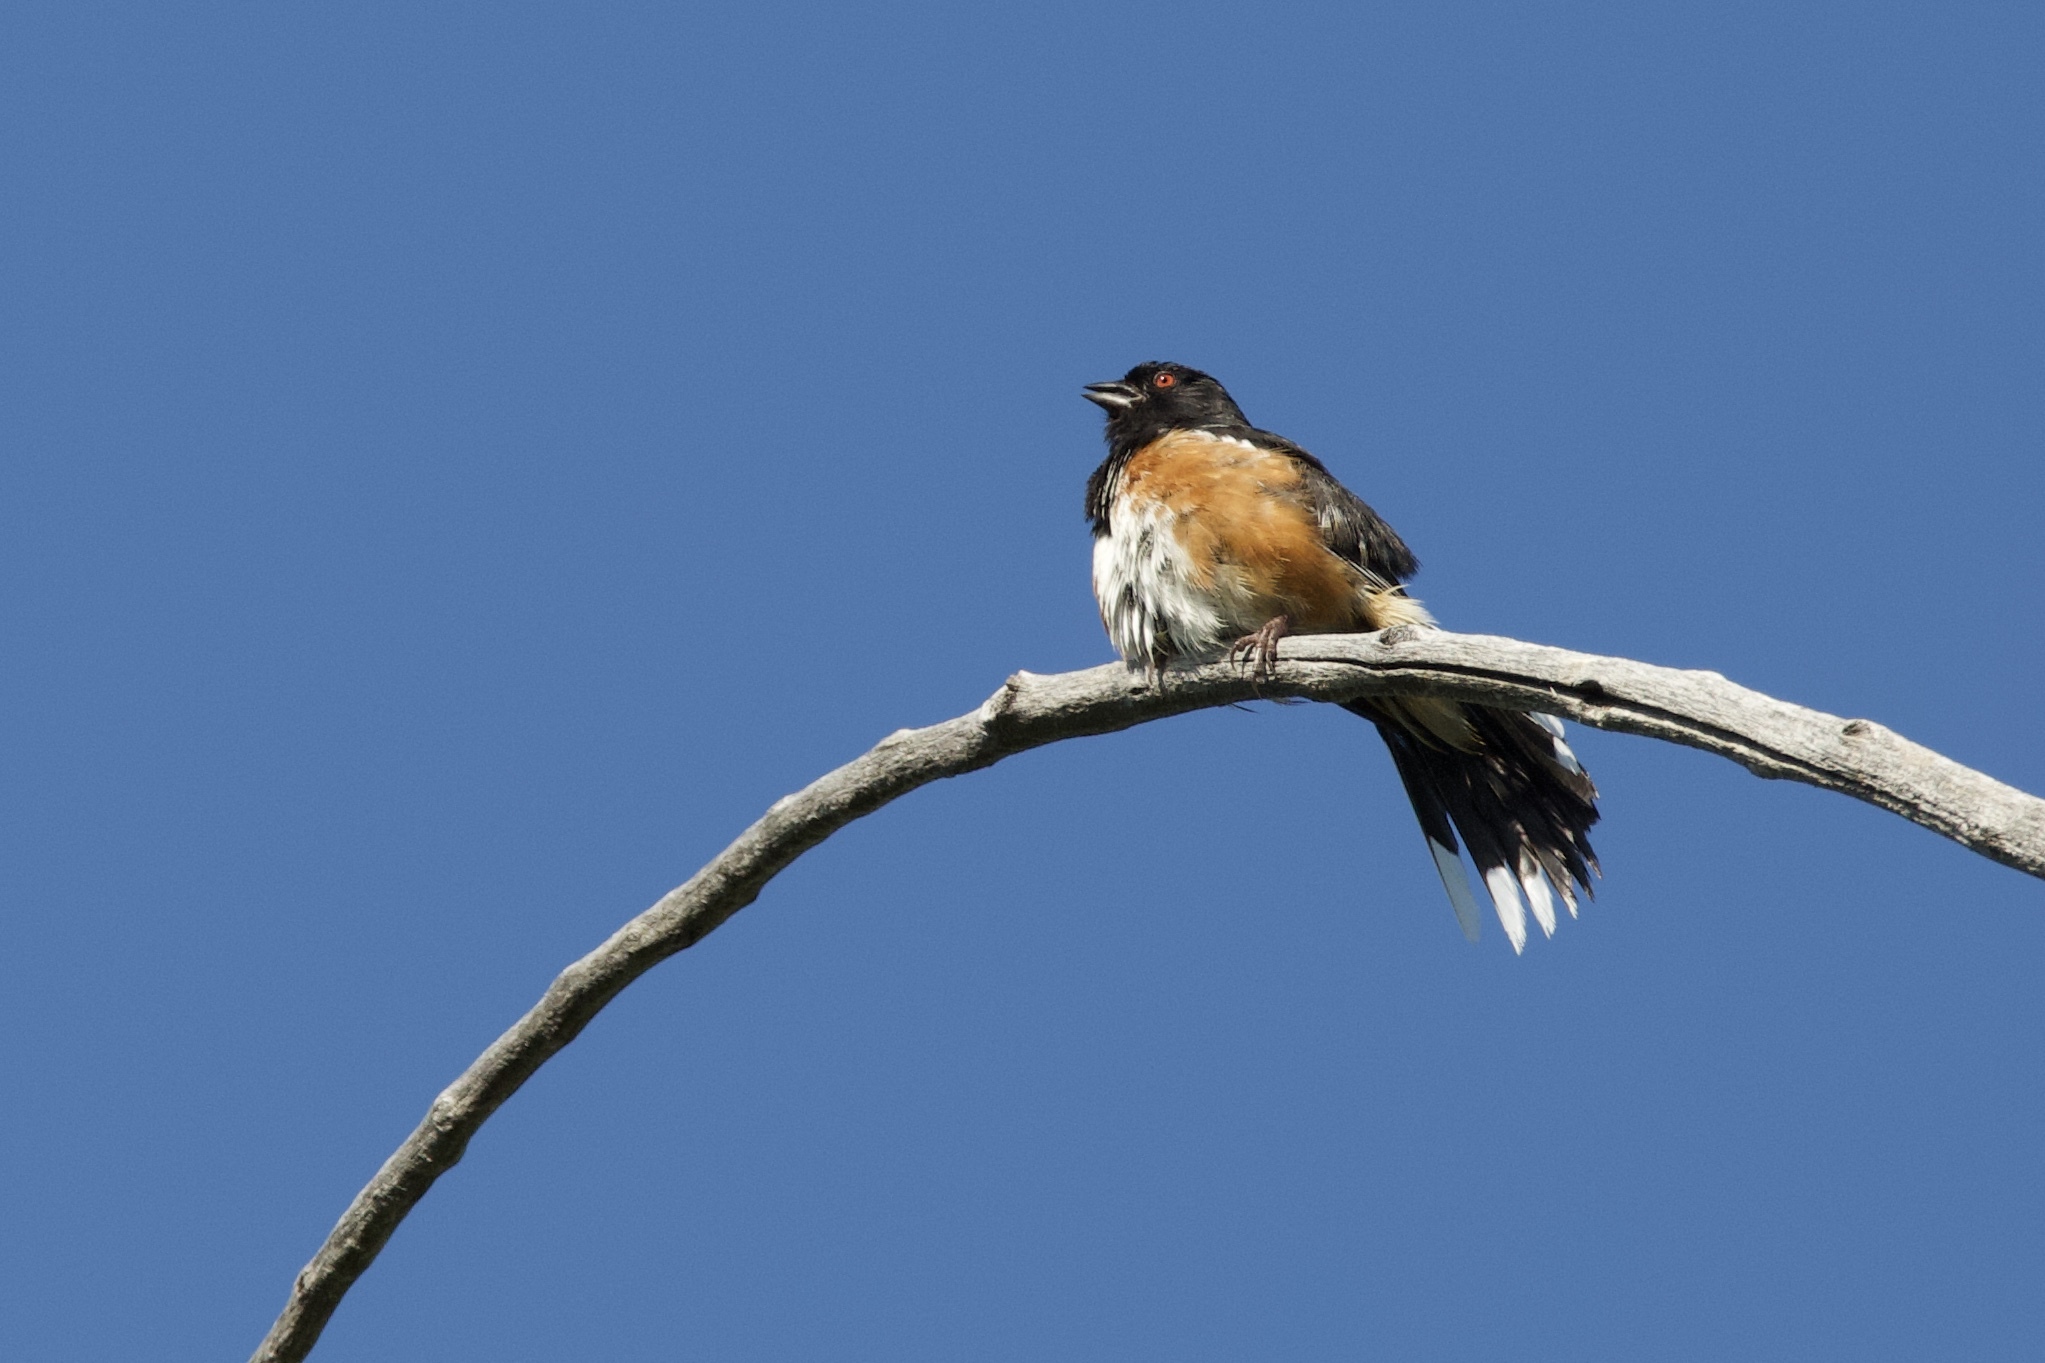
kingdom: Animalia
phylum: Chordata
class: Aves
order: Passeriformes
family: Passerellidae
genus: Pipilo
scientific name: Pipilo maculatus
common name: Spotted towhee
